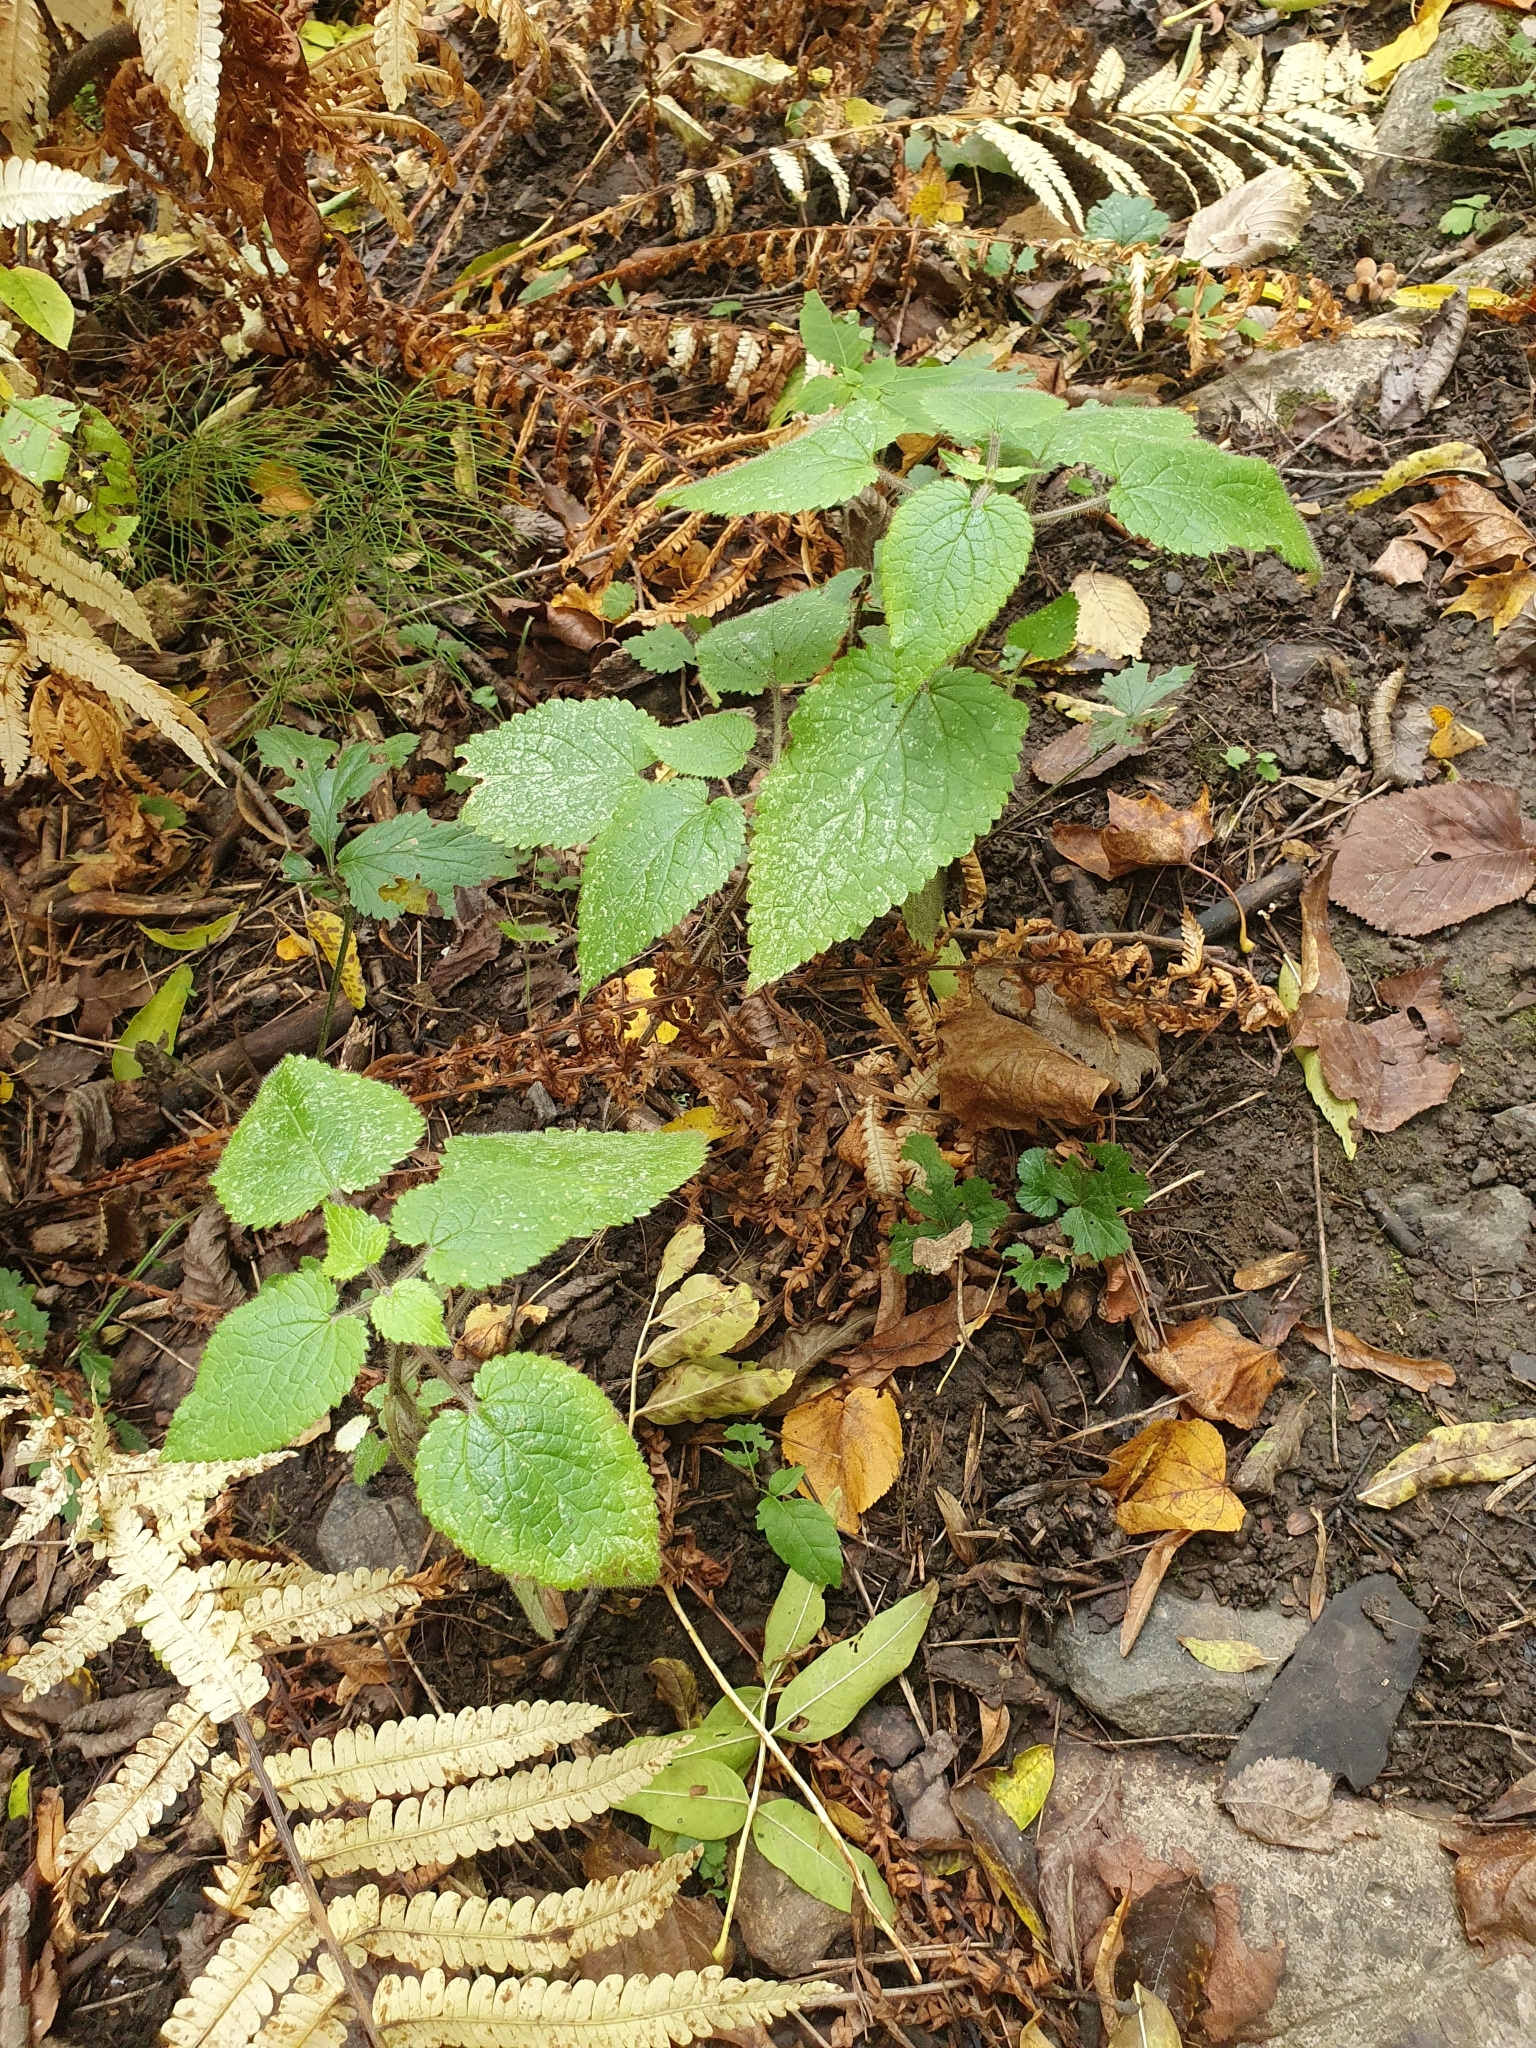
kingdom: Plantae
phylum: Tracheophyta
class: Magnoliopsida
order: Lamiales
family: Lamiaceae
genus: Stachys
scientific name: Stachys sylvatica
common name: Hedge woundwort
